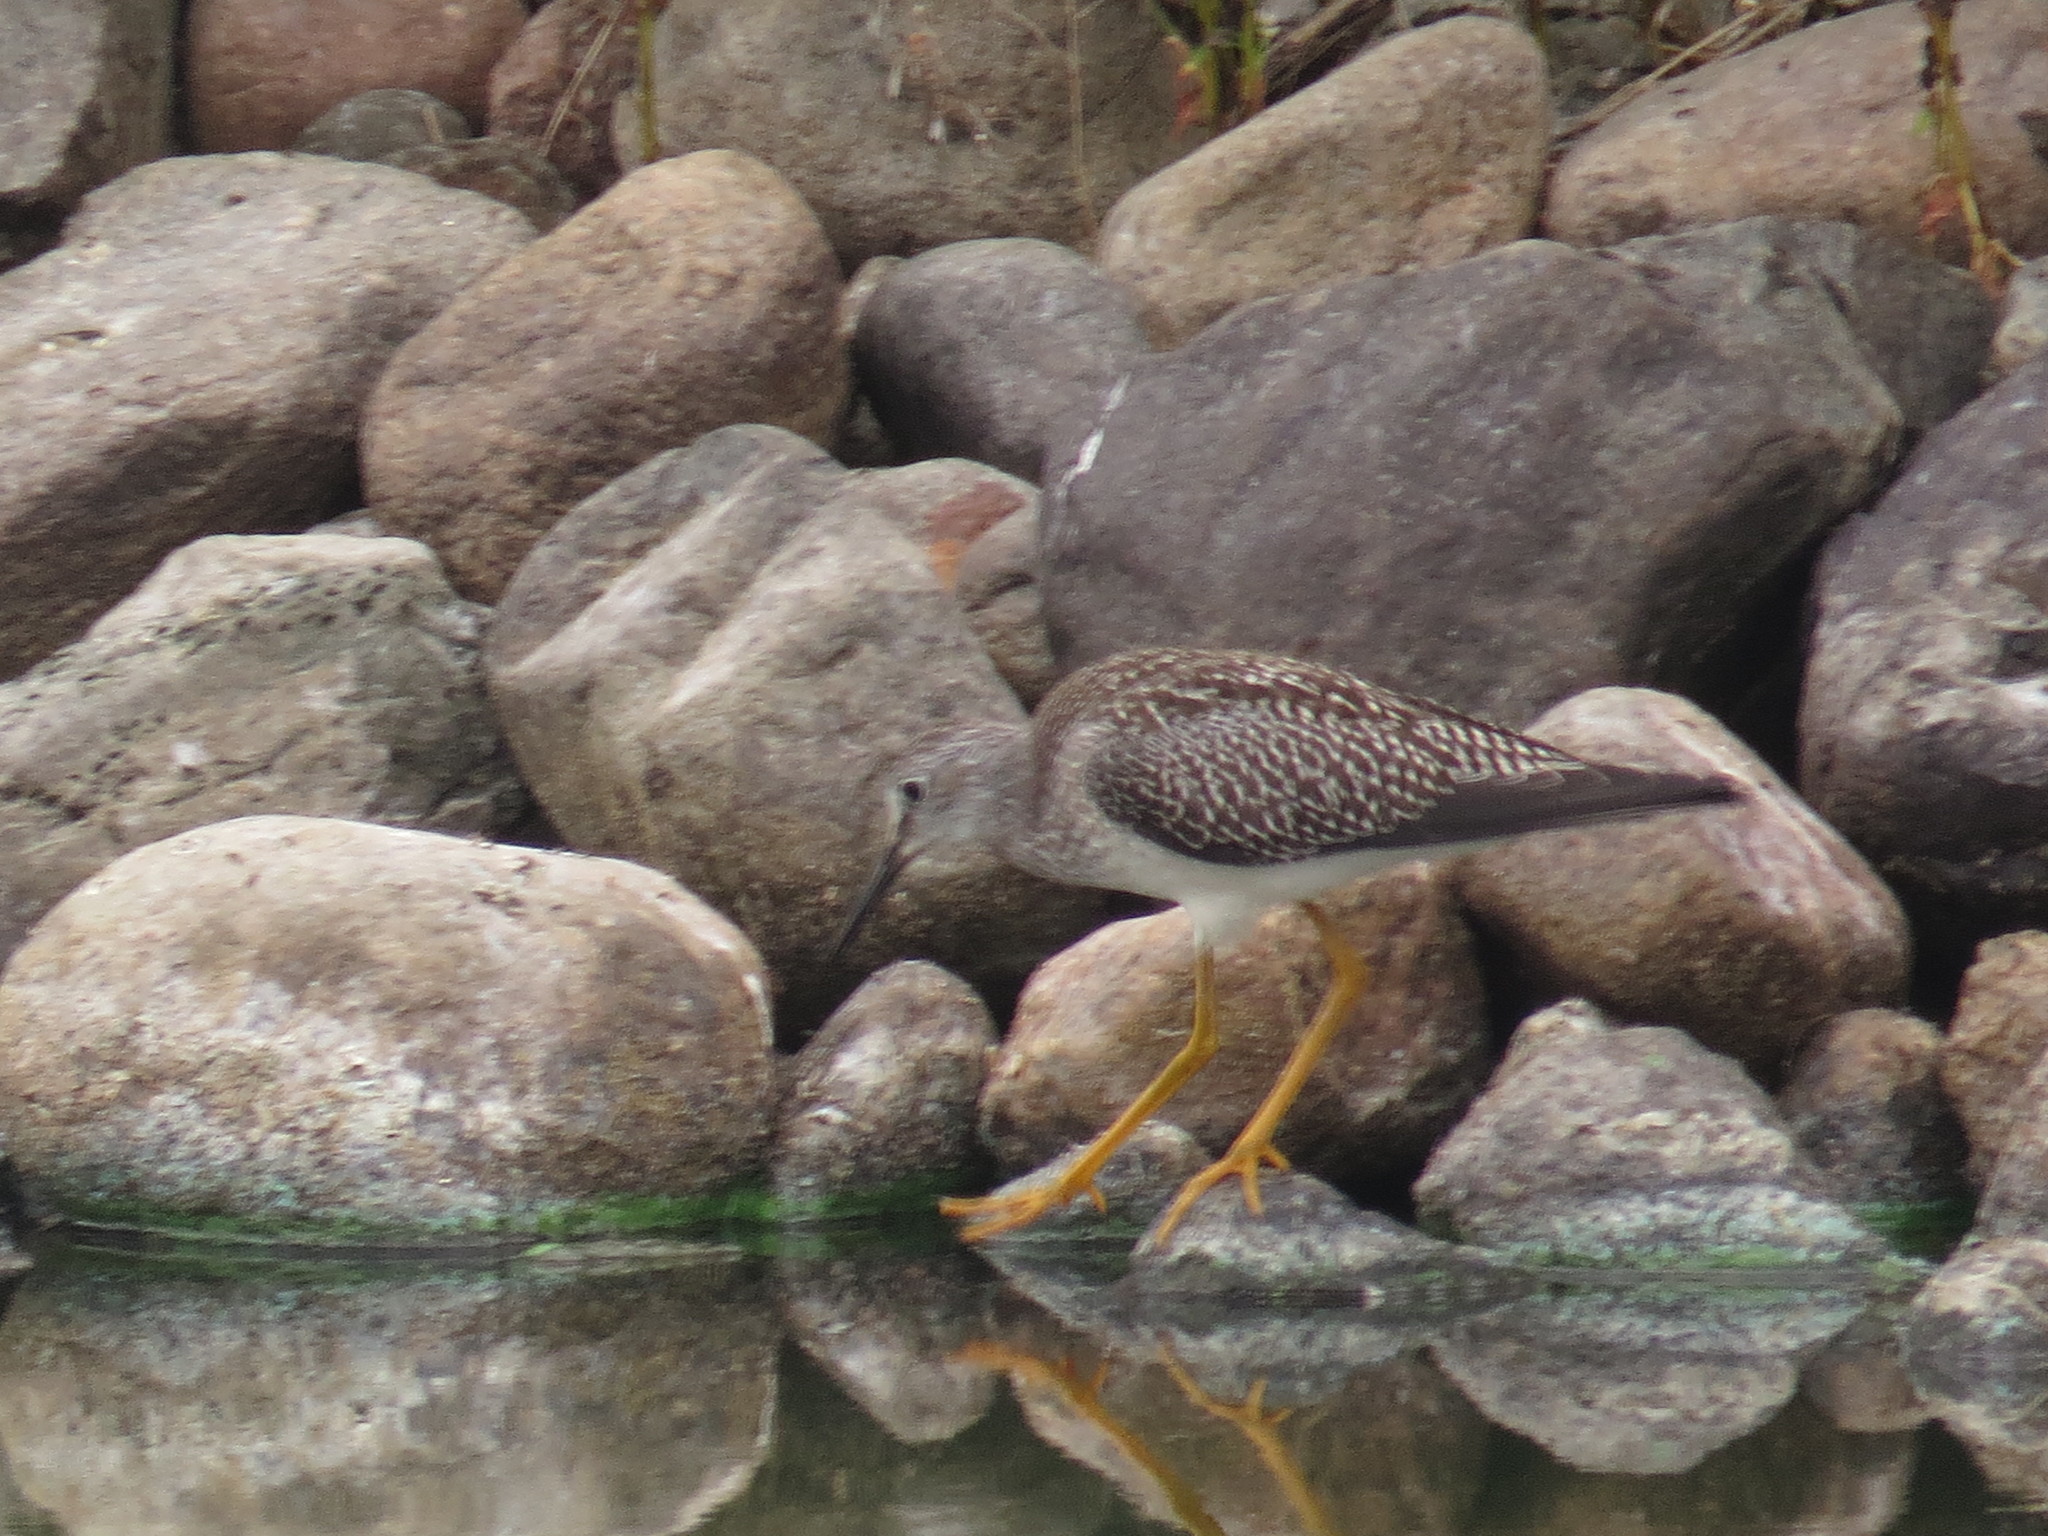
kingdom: Animalia
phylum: Chordata
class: Aves
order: Charadriiformes
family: Scolopacidae
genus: Tringa
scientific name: Tringa flavipes
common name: Lesser yellowlegs
